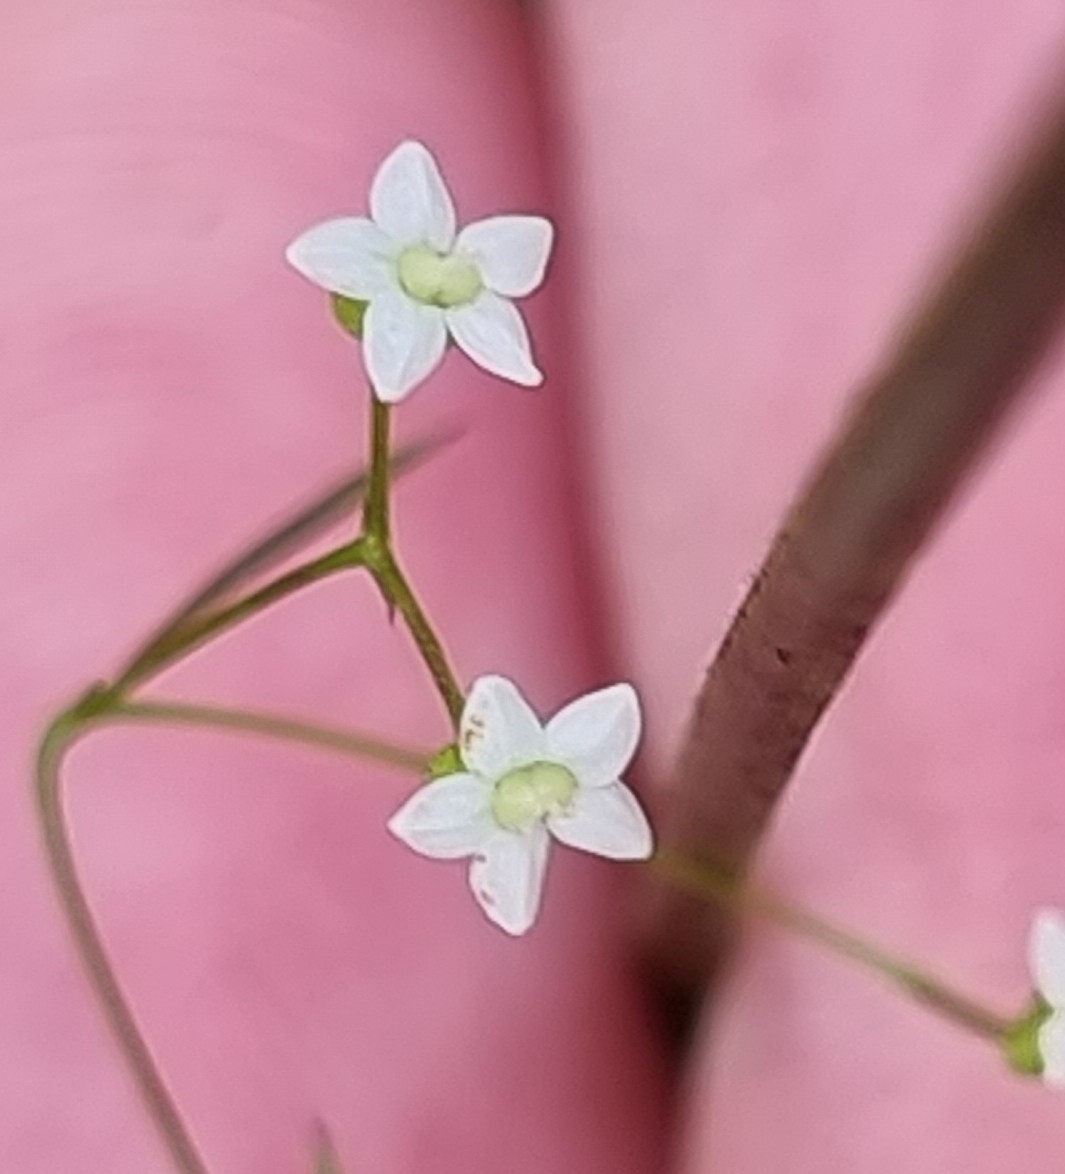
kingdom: Plantae
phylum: Tracheophyta
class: Magnoliopsida
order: Apiales
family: Apiaceae
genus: Platysace
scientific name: Platysace linearifolia
